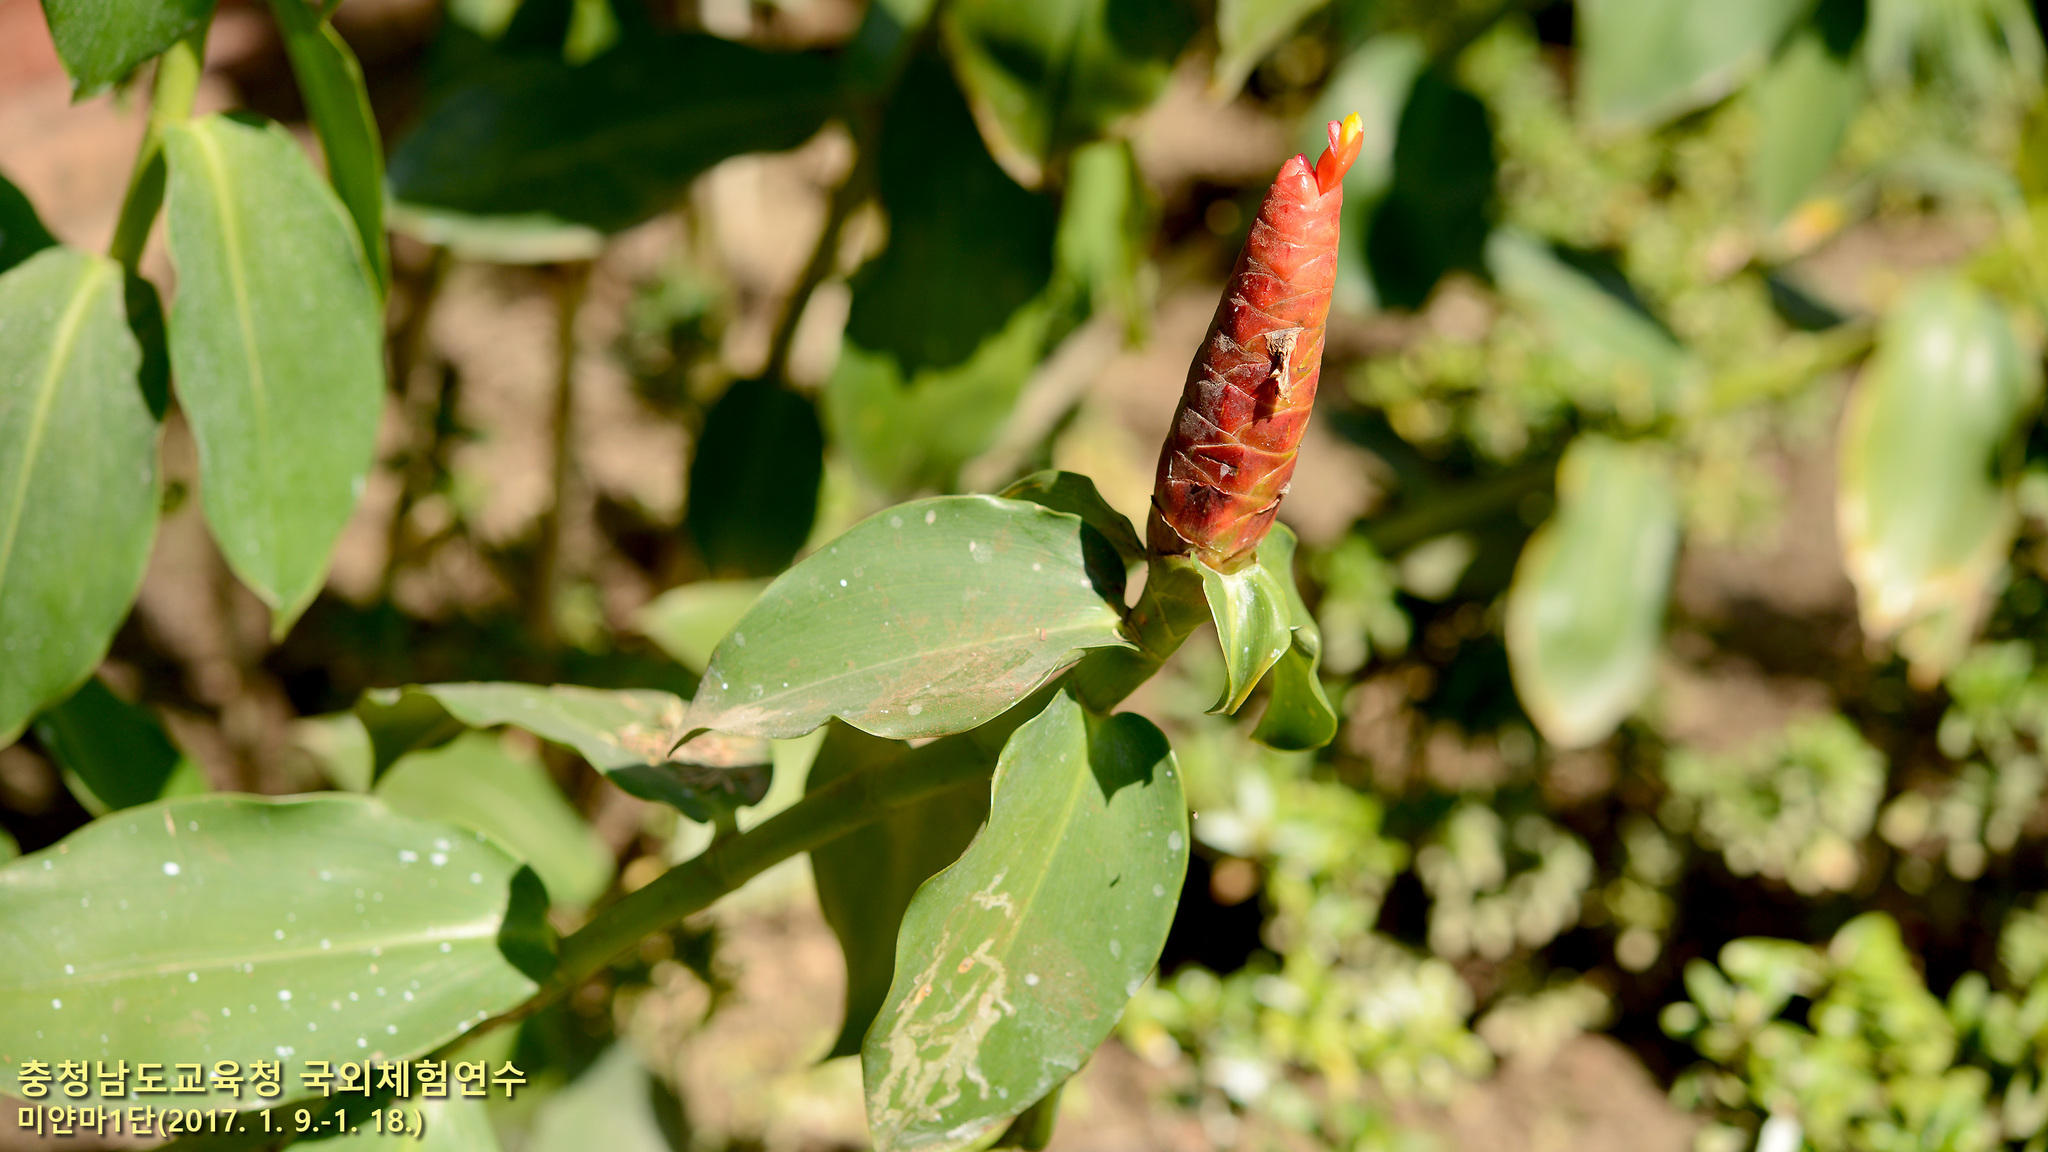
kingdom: Plantae
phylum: Tracheophyta
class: Liliopsida
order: Zingiberales
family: Costaceae
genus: Costus
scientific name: Costus woodsonii
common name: Scarlet spiral-ginger
